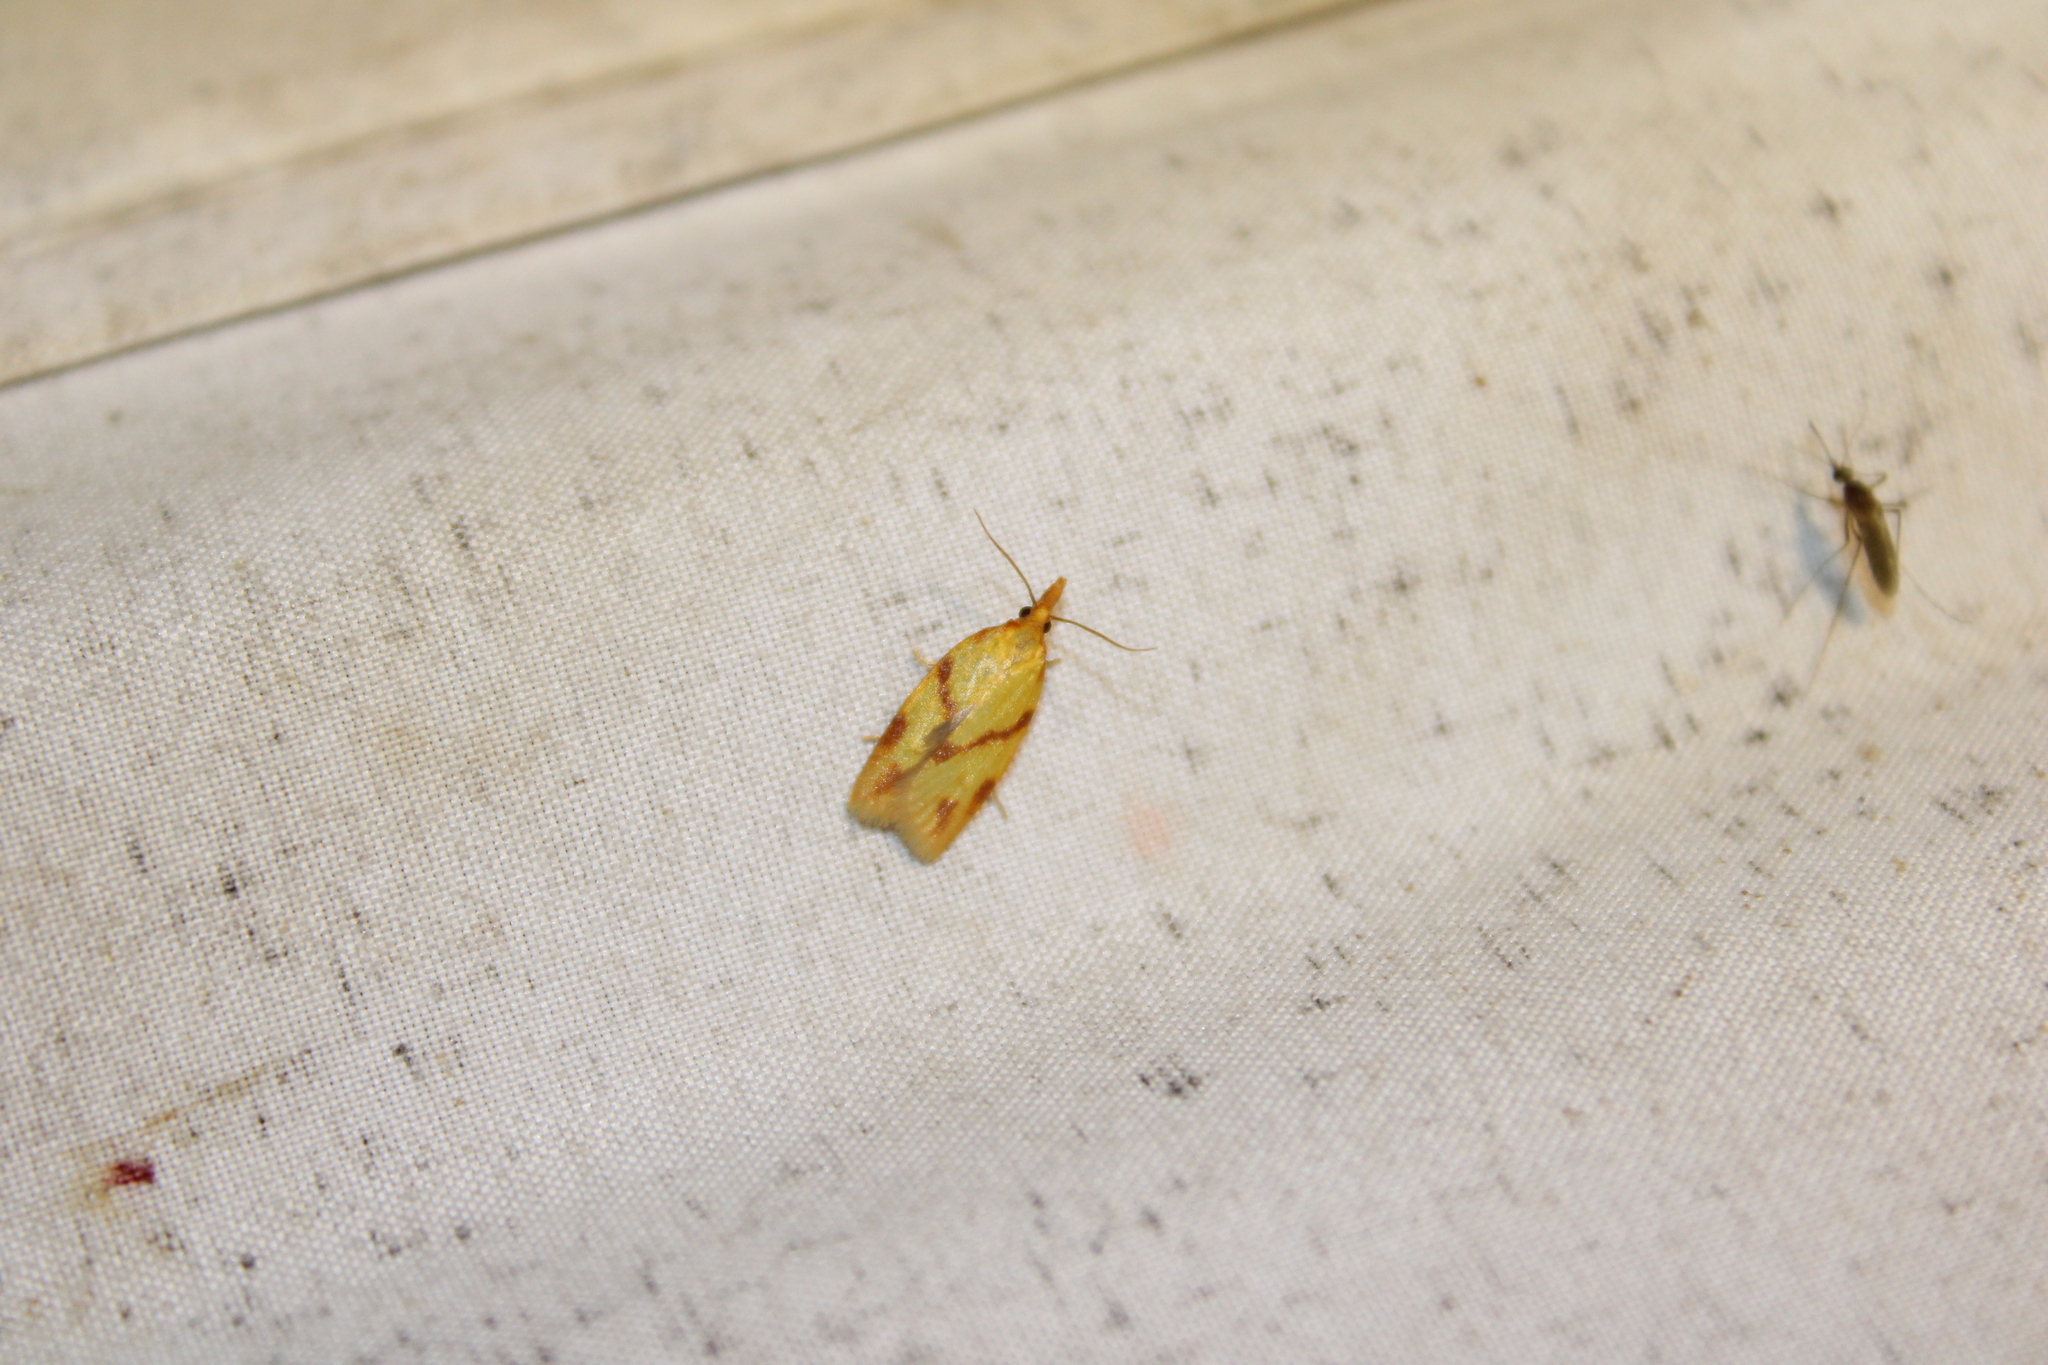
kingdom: Animalia
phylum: Arthropoda
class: Insecta
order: Lepidoptera
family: Tortricidae
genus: Sparganothis
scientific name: Sparganothis unifasciana
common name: One-lined sparganothis moth
